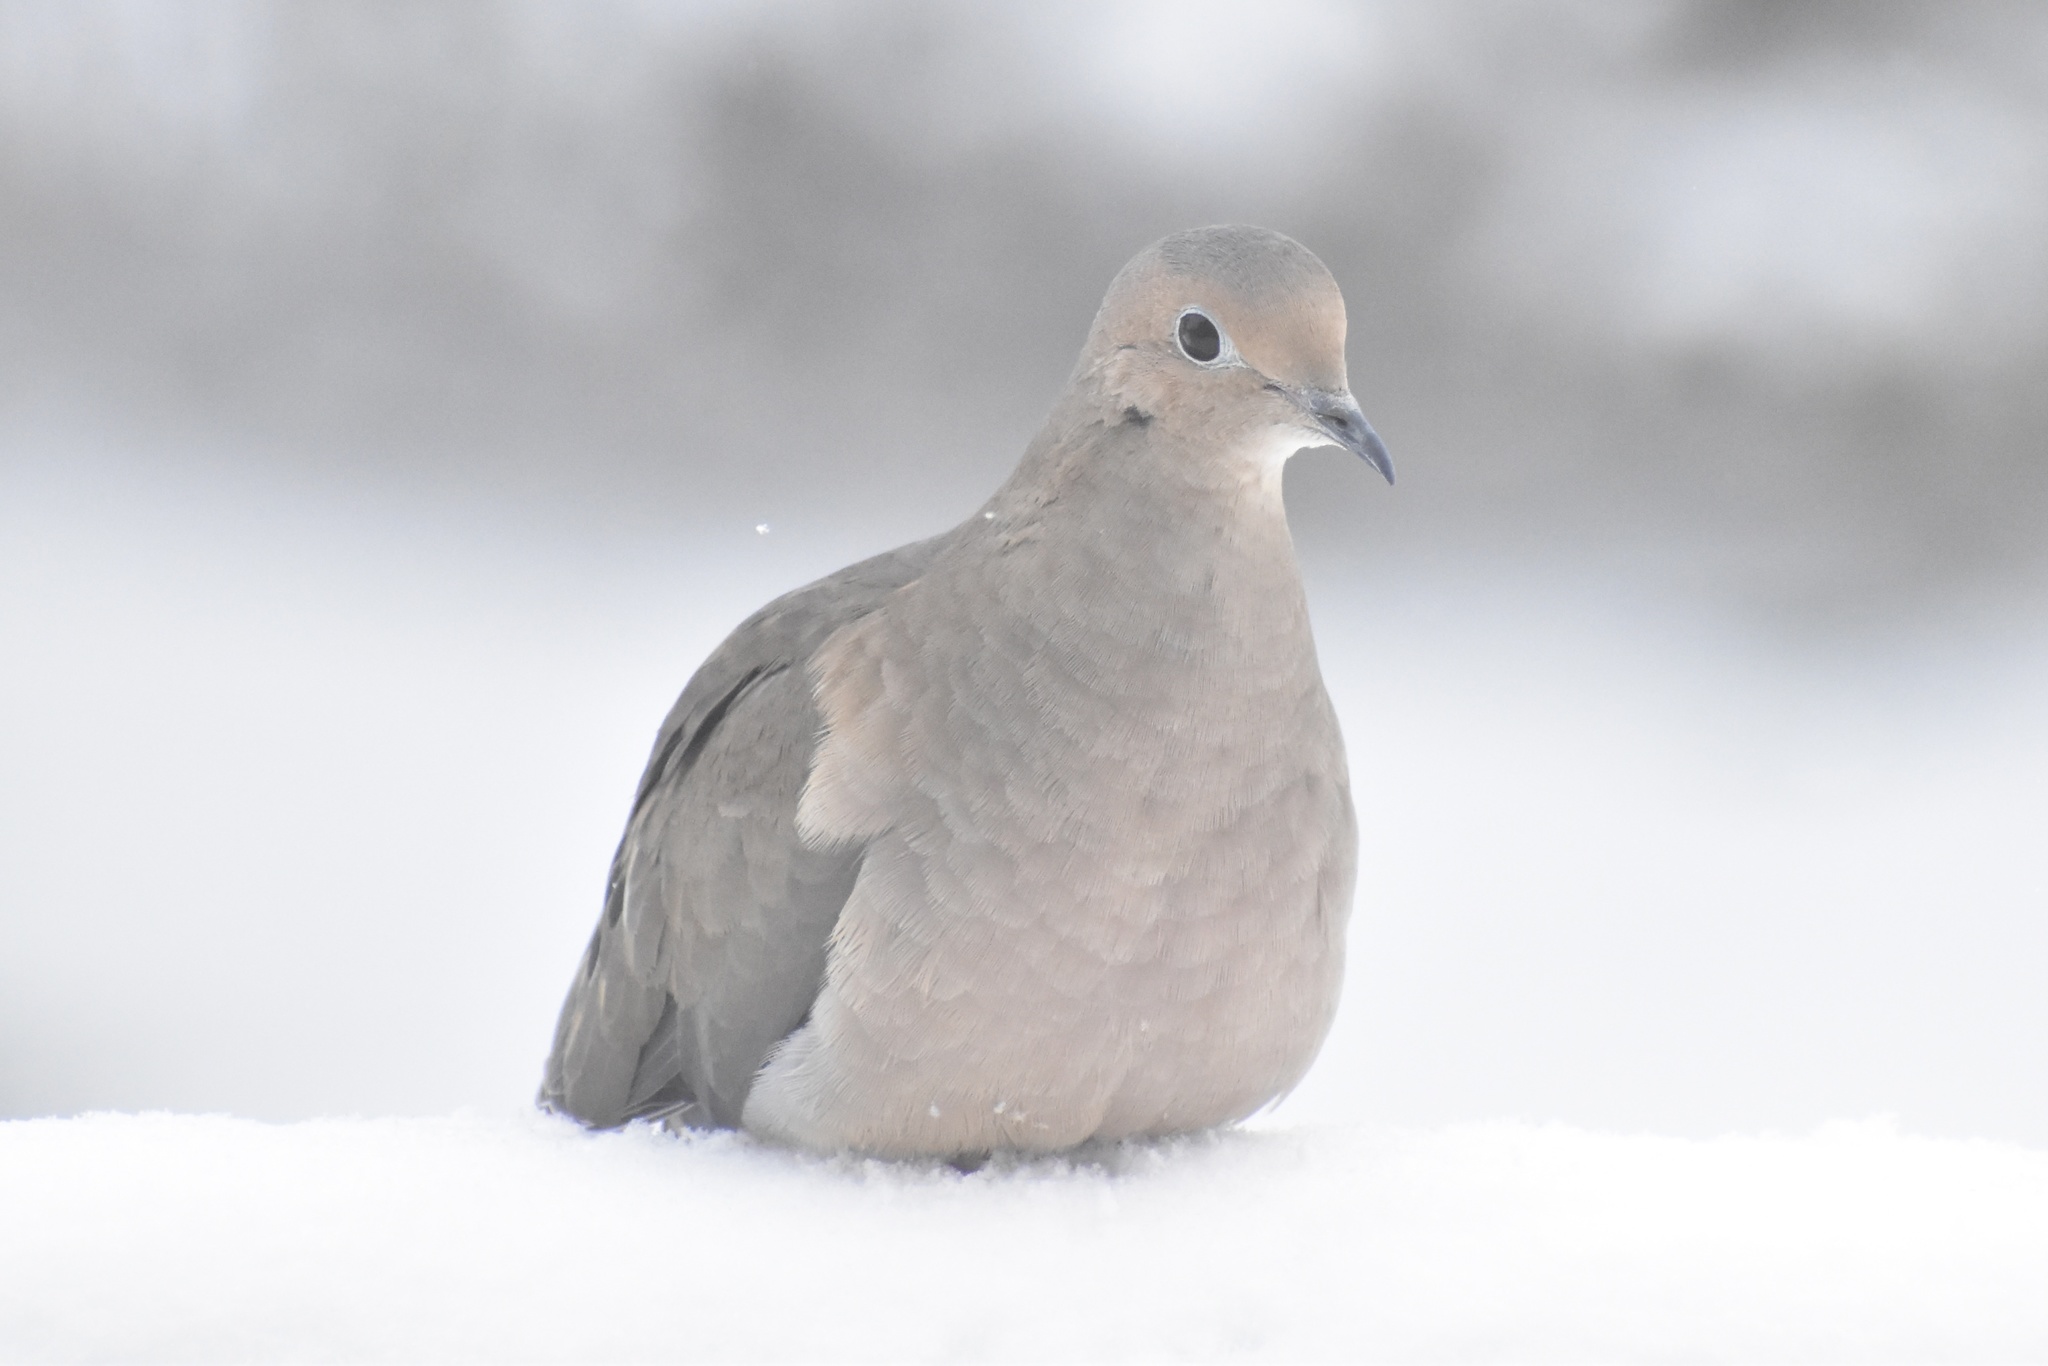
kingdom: Animalia
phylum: Chordata
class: Aves
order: Columbiformes
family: Columbidae
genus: Zenaida
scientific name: Zenaida macroura
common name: Mourning dove
